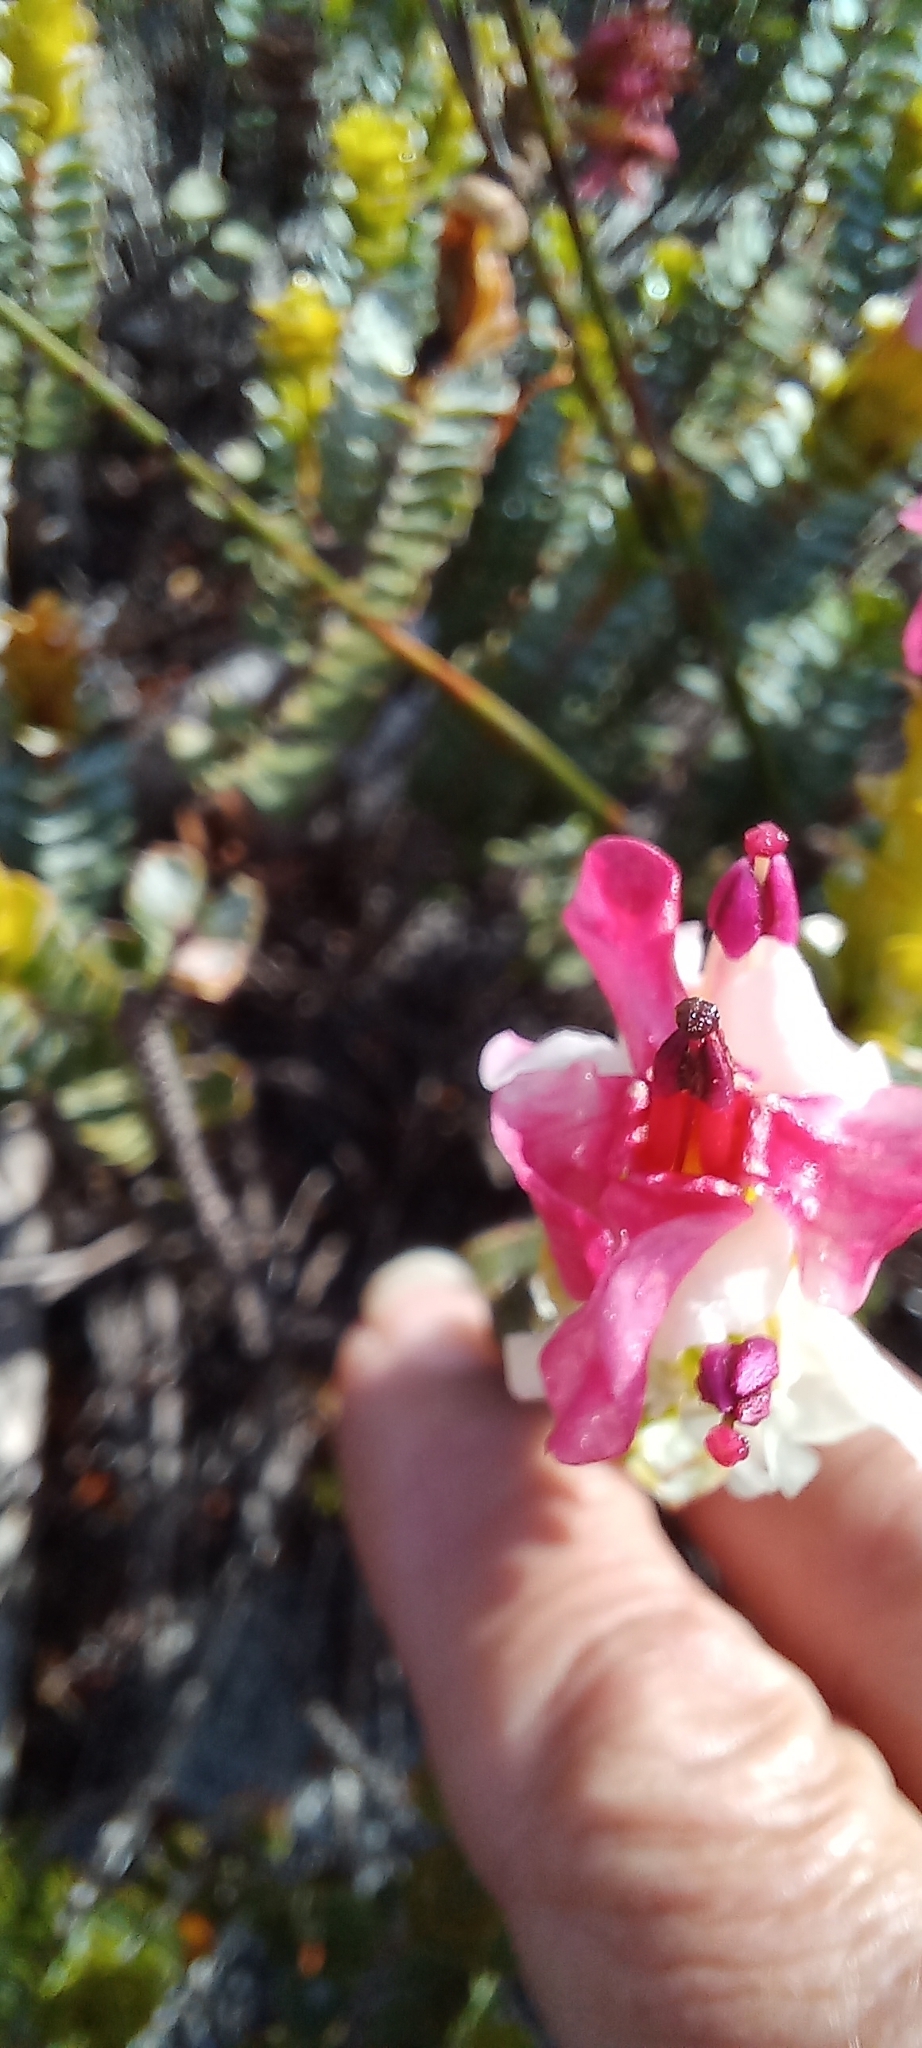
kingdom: Plantae
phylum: Tracheophyta
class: Magnoliopsida
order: Myrtales
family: Penaeaceae
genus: Saltera
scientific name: Saltera sarcocolla
